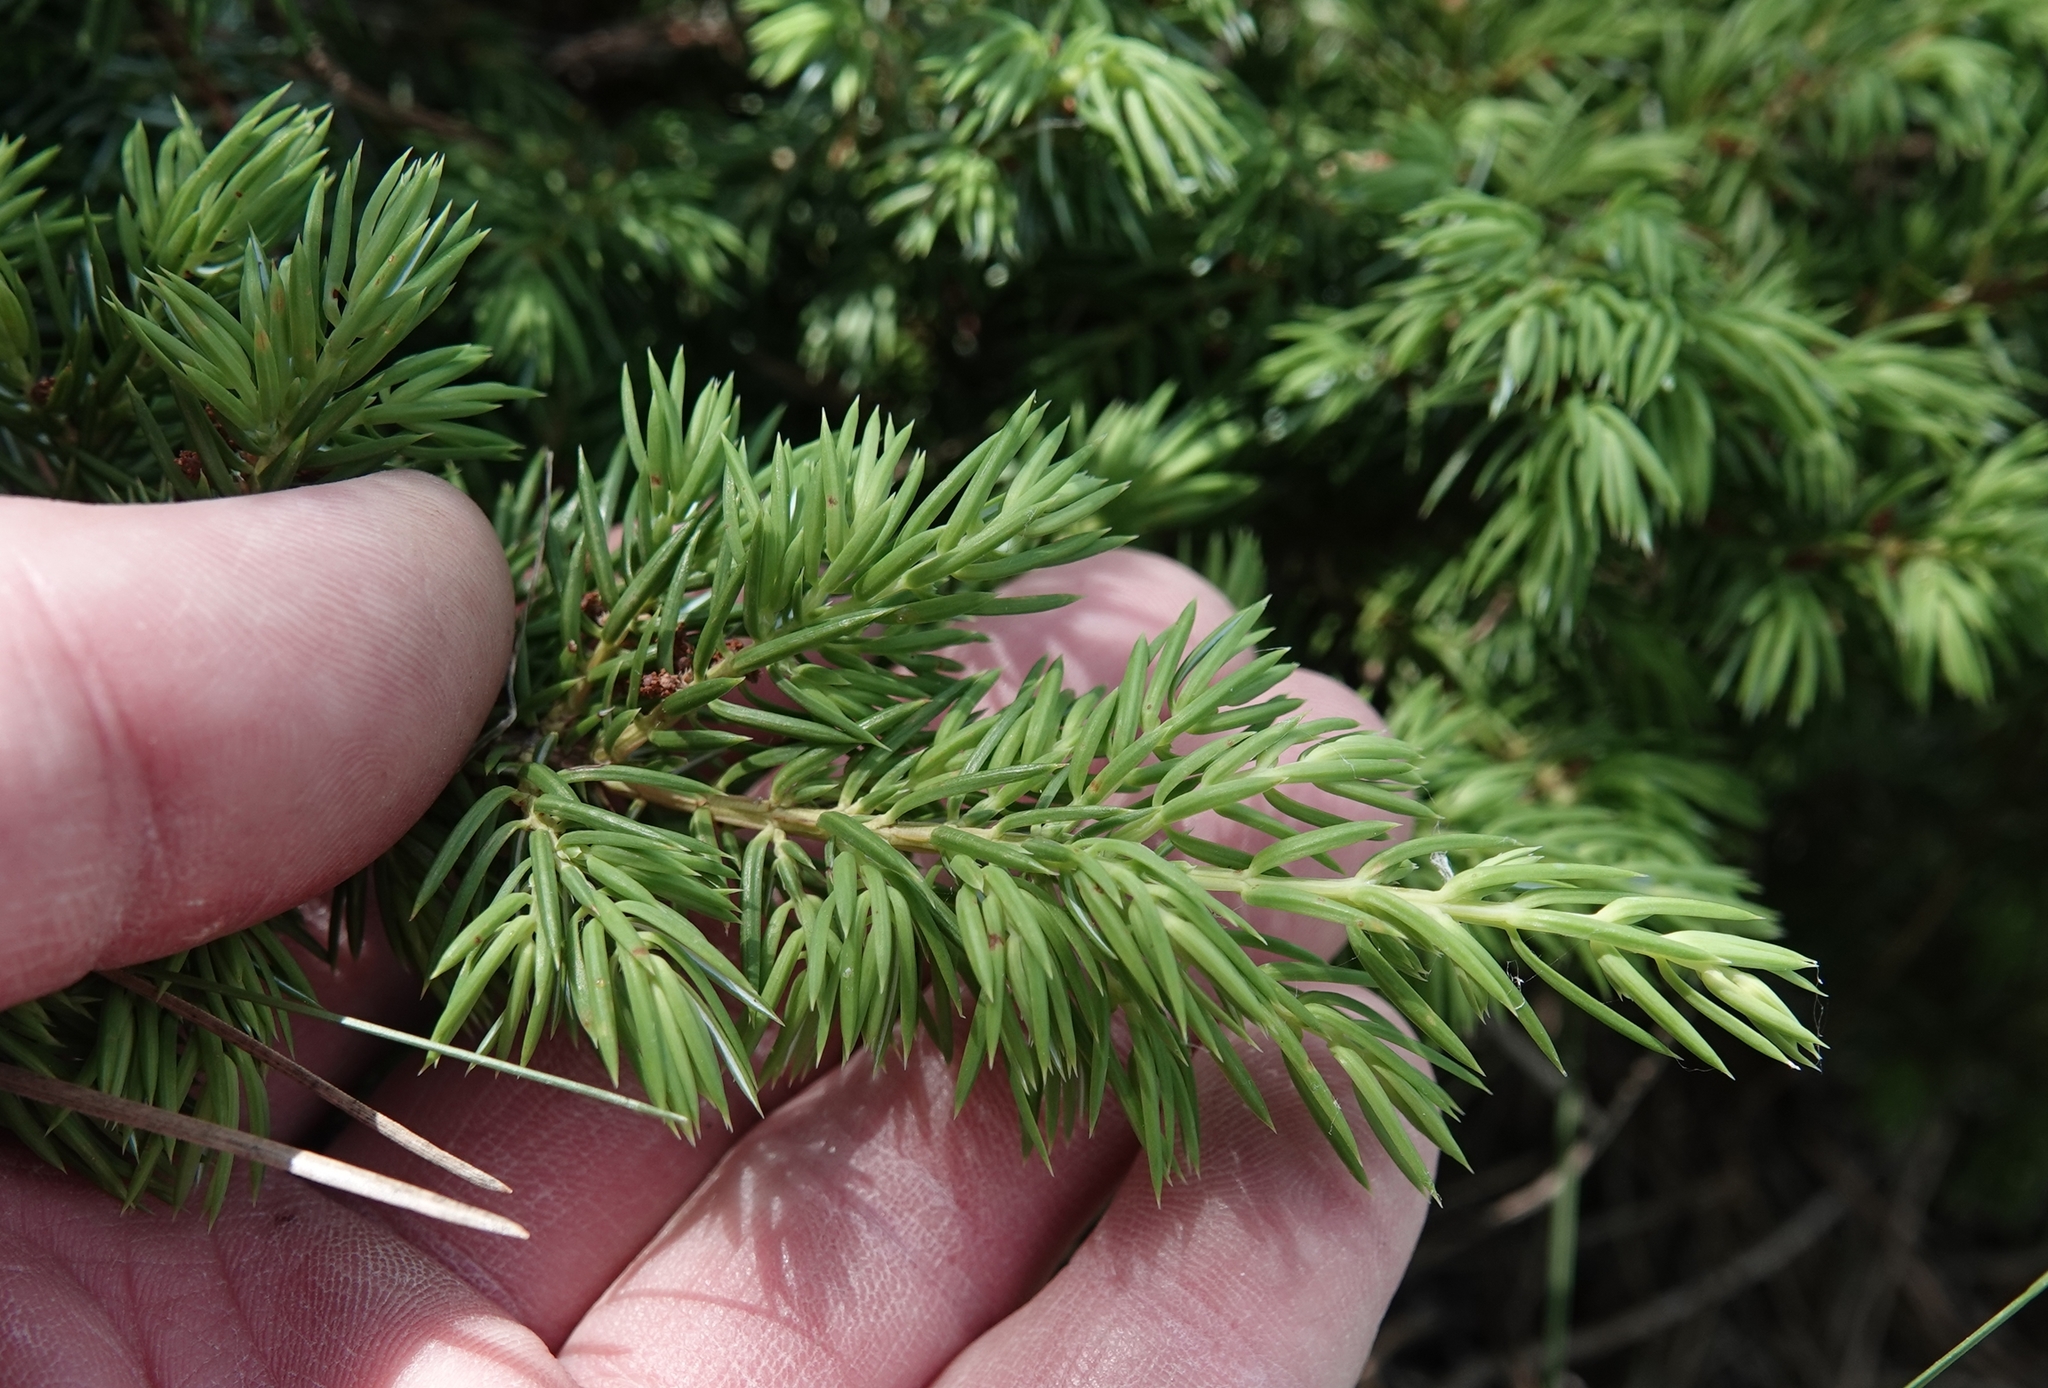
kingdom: Plantae
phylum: Tracheophyta
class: Pinopsida
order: Pinales
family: Cupressaceae
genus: Juniperus
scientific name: Juniperus communis
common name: Common juniper
